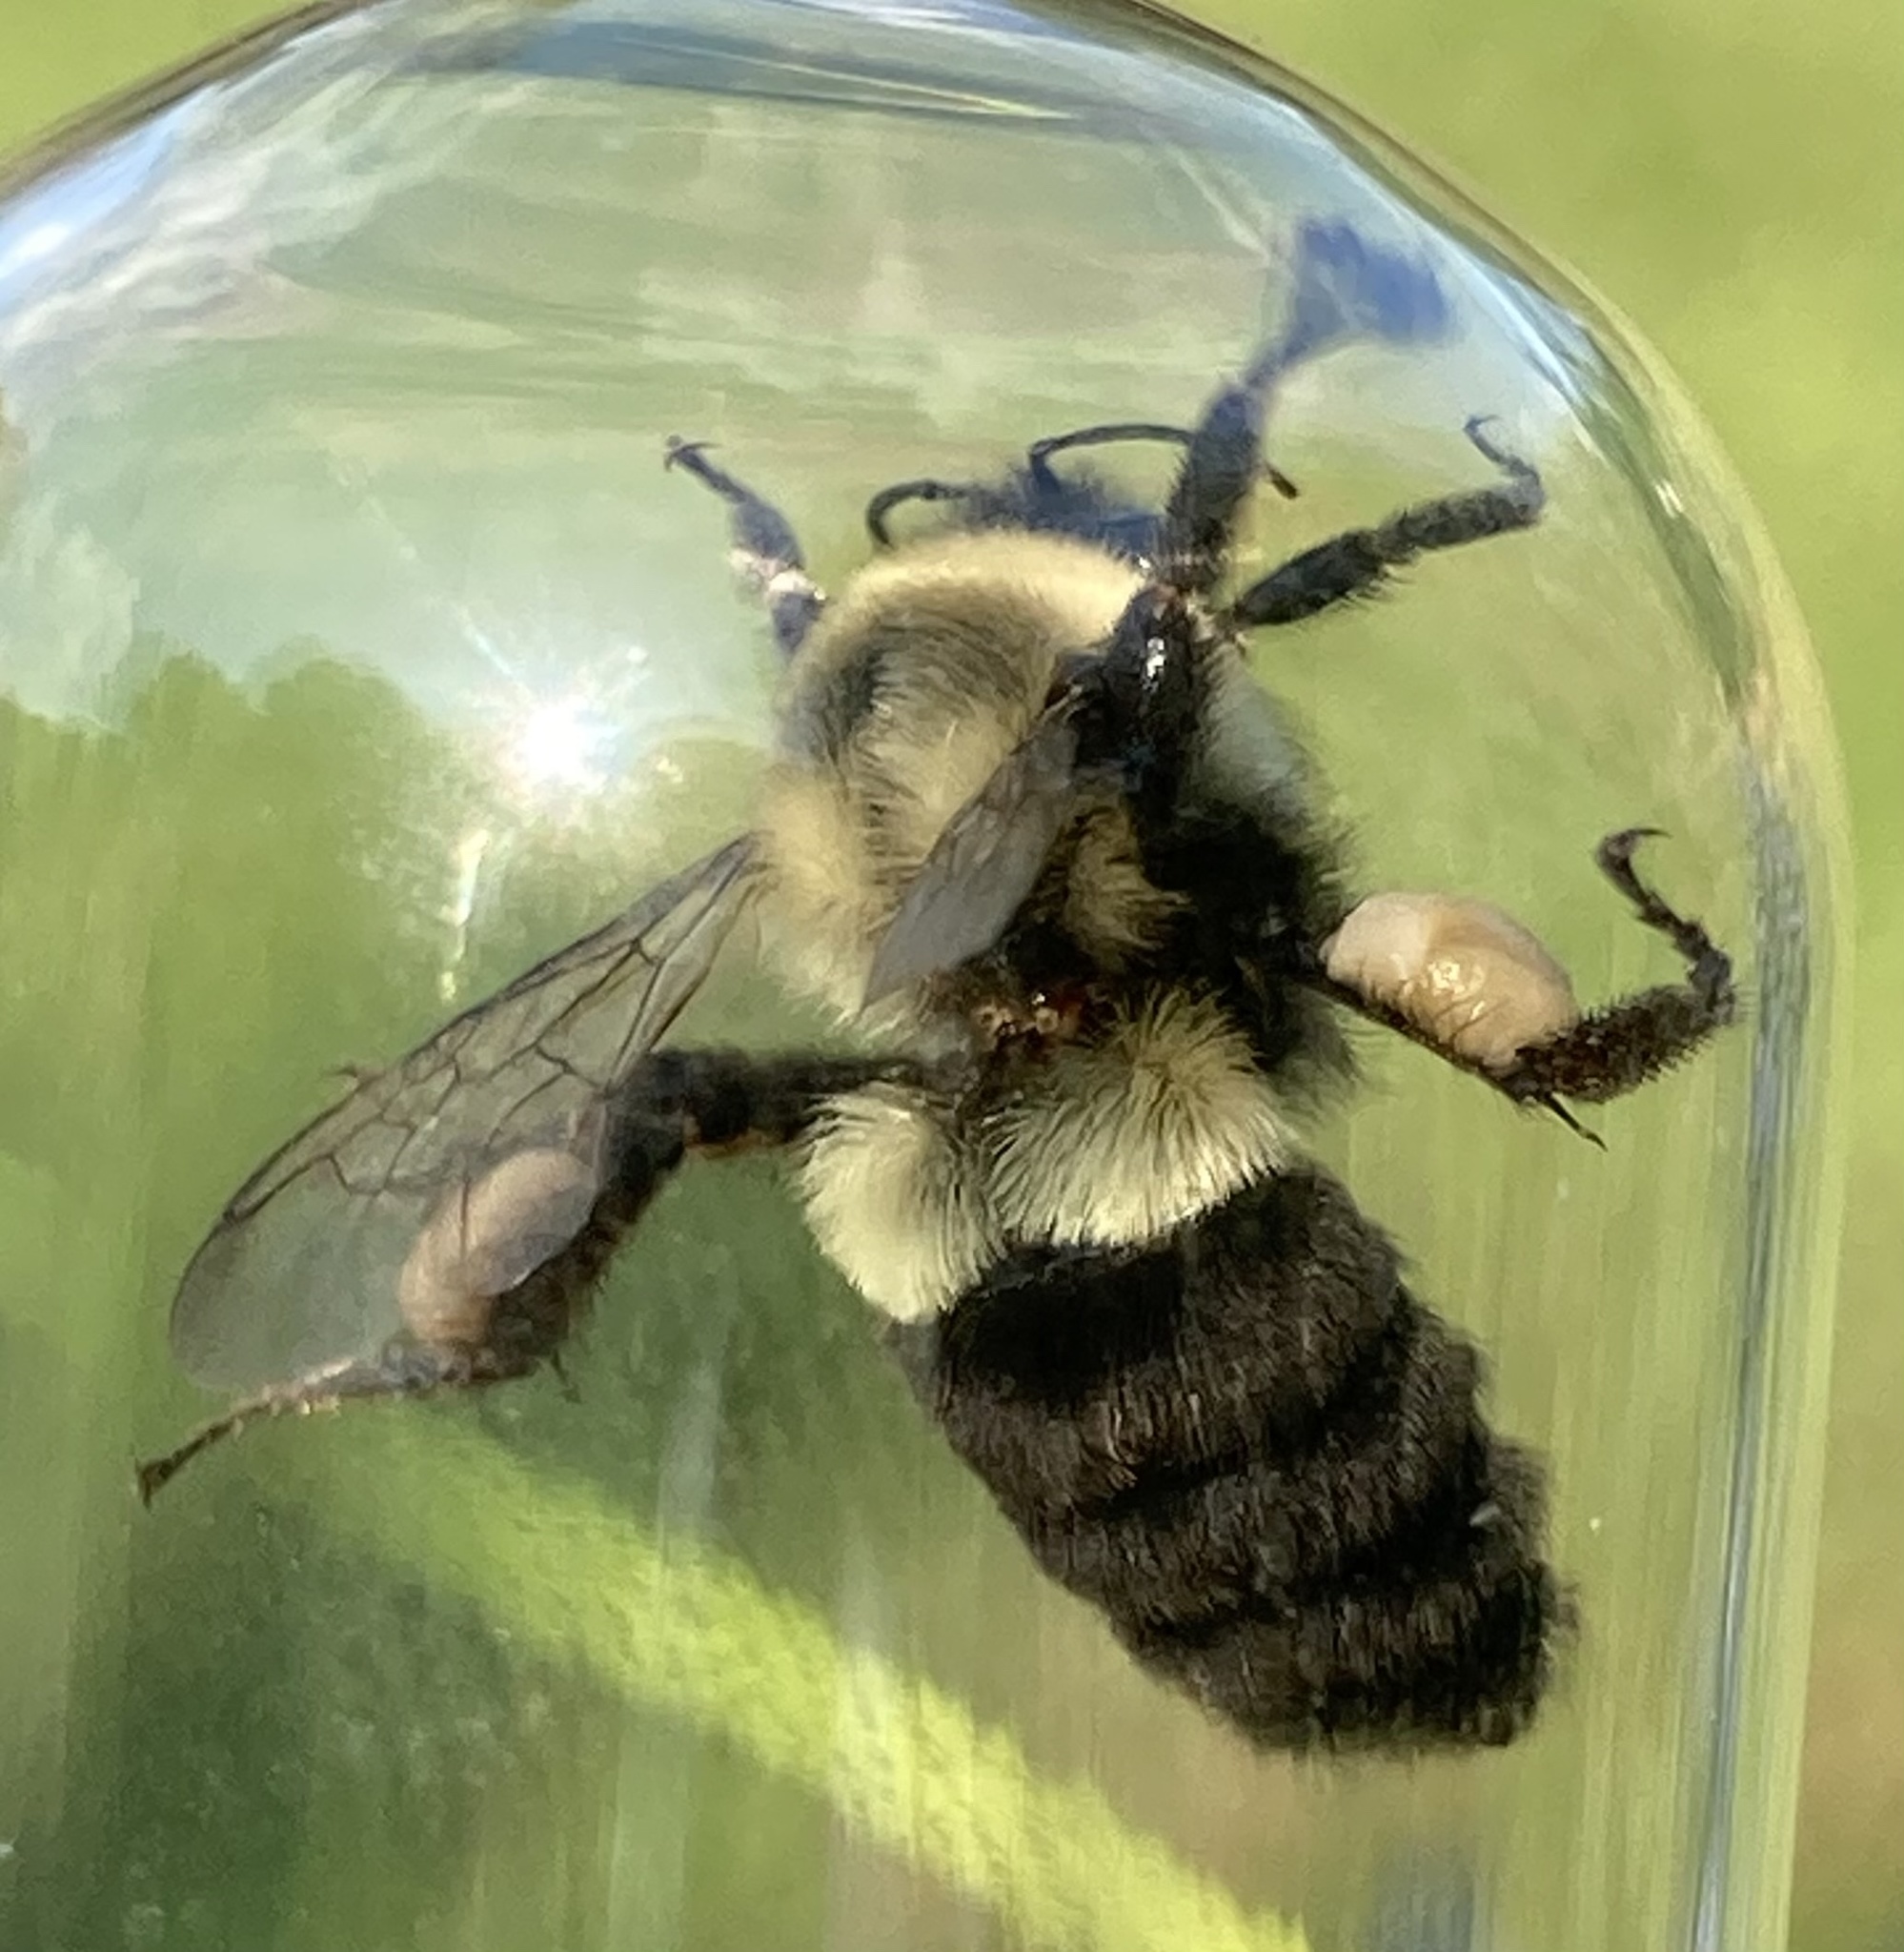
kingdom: Animalia
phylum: Arthropoda
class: Insecta
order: Hymenoptera
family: Apidae
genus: Bombus
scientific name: Bombus impatiens
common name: Common eastern bumble bee
